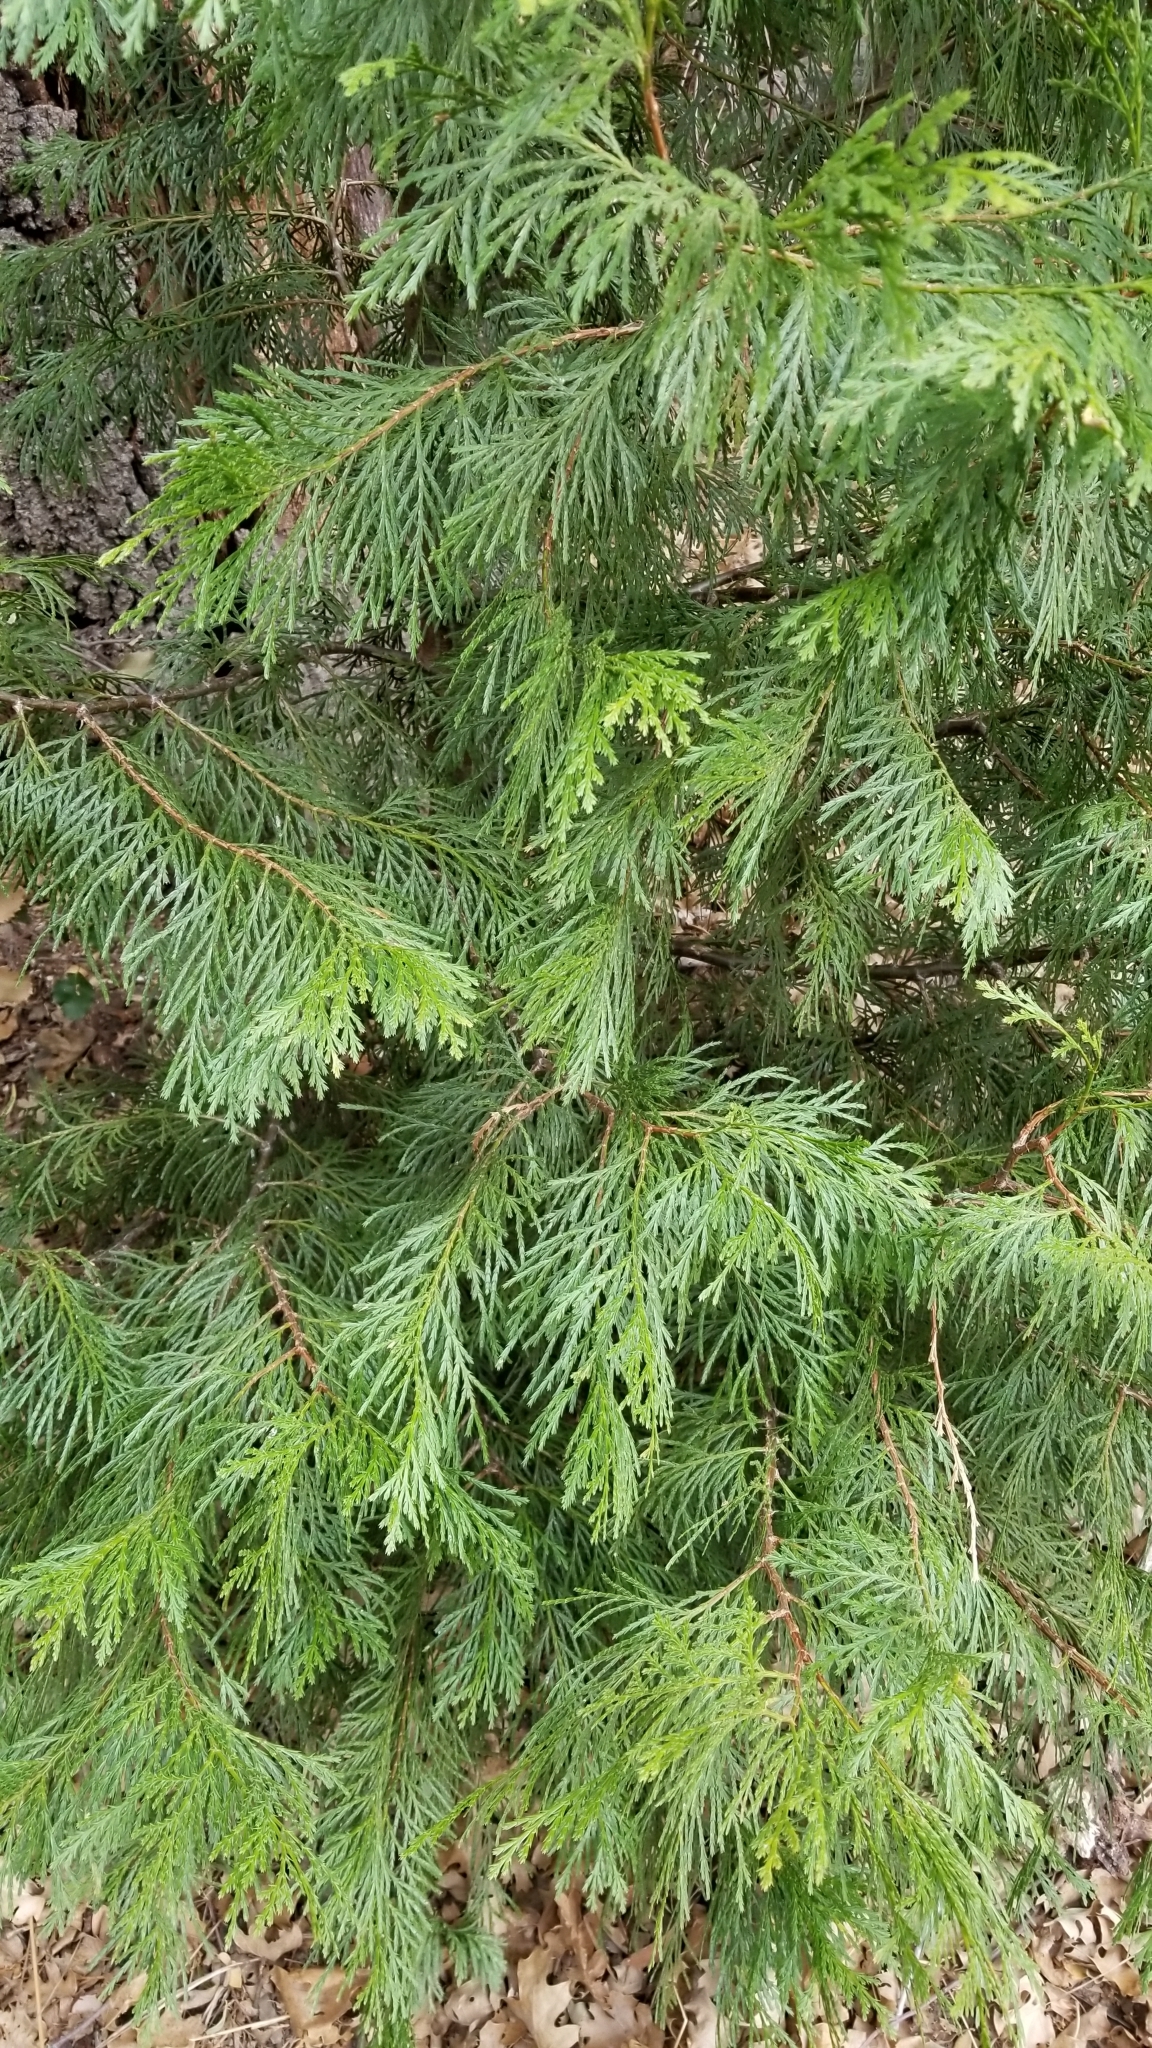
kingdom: Plantae
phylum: Tracheophyta
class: Pinopsida
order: Pinales
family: Cupressaceae
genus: Calocedrus
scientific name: Calocedrus decurrens
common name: Californian incense-cedar
